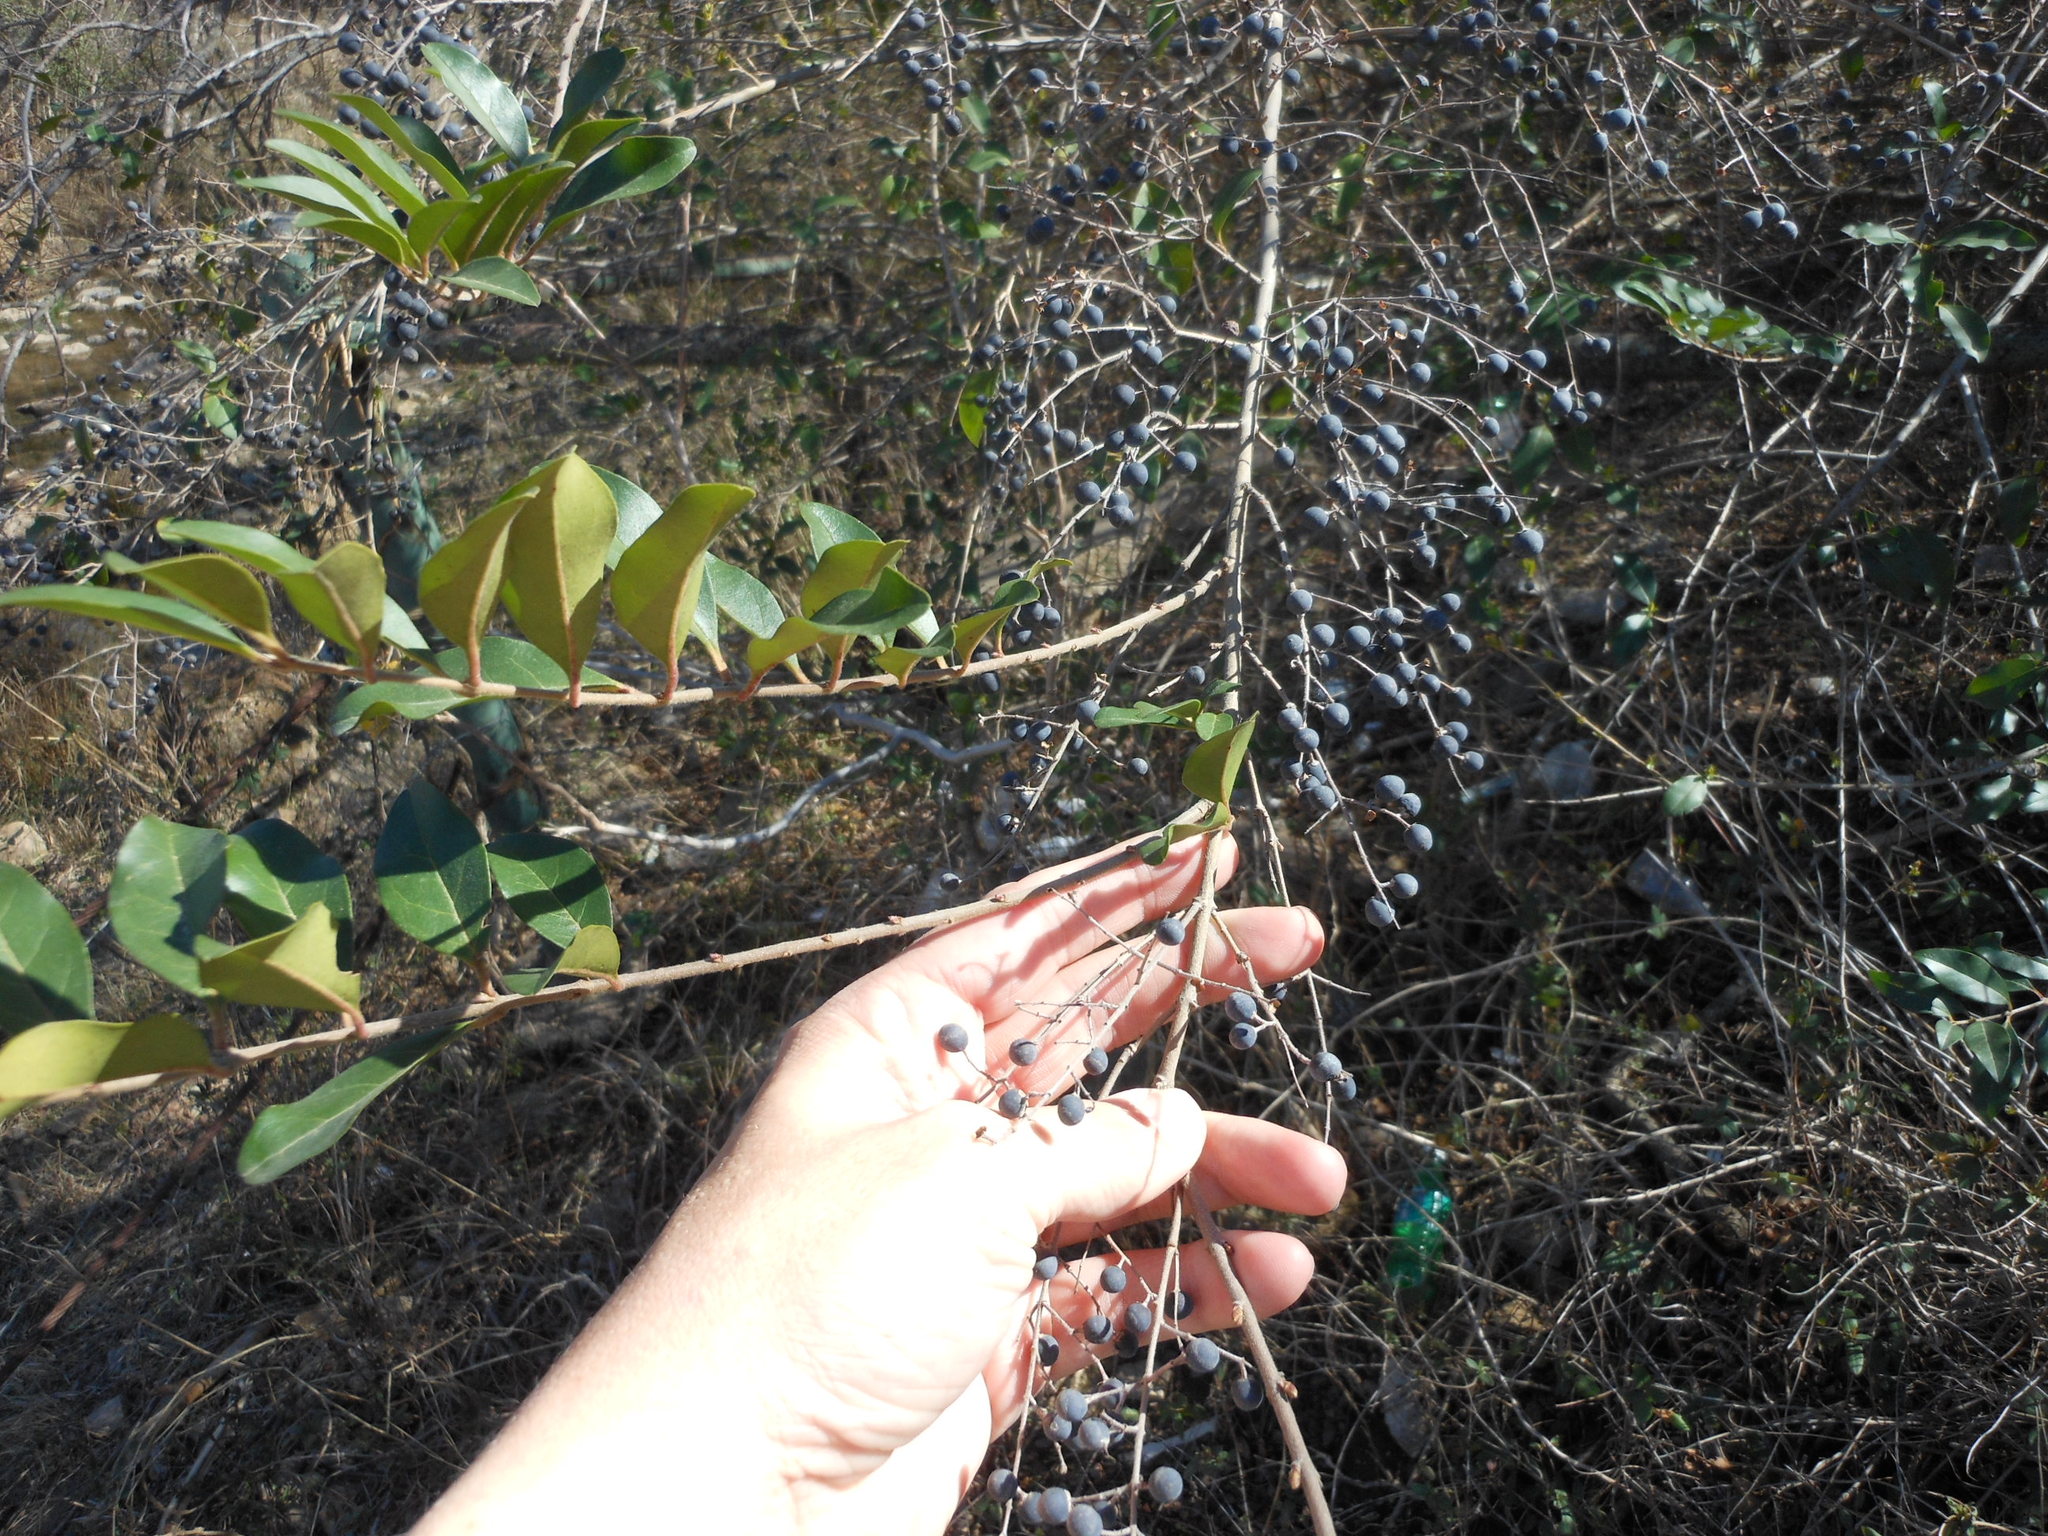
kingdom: Plantae
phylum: Tracheophyta
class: Magnoliopsida
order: Lamiales
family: Oleaceae
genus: Ligustrum
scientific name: Ligustrum sinense
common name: Chinese privet
